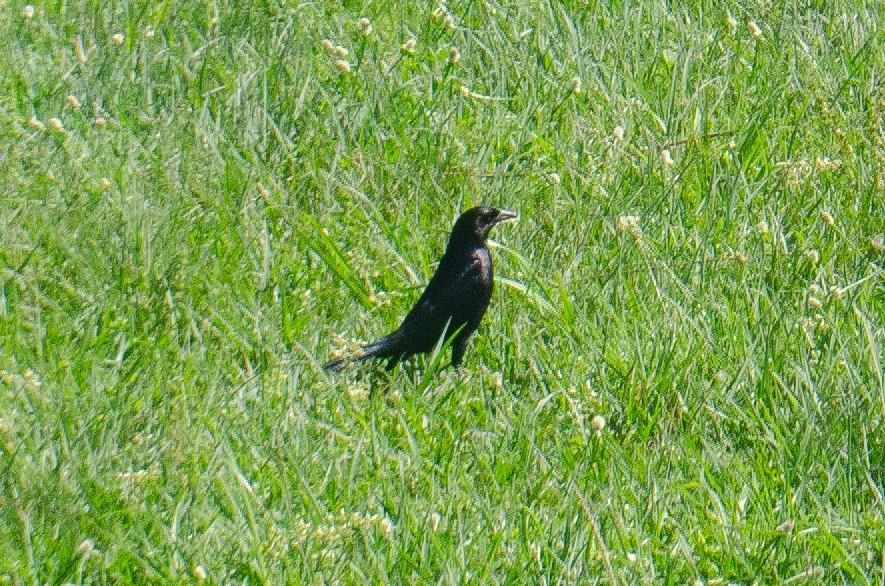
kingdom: Animalia
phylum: Chordata
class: Aves
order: Passeriformes
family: Icteridae
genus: Molothrus
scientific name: Molothrus bonariensis
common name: Shiny cowbird
